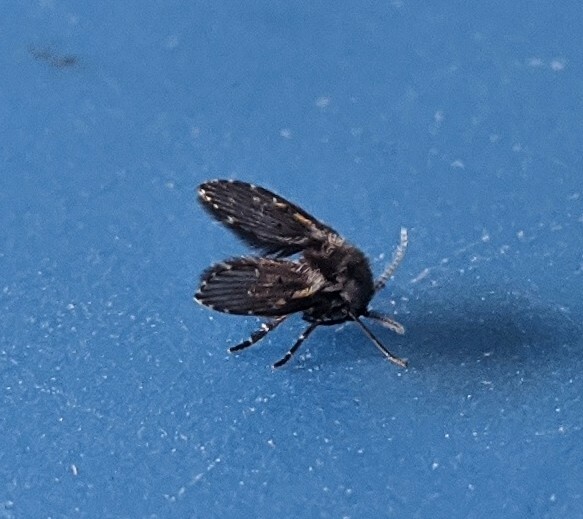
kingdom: Animalia
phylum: Arthropoda
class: Insecta
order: Diptera
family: Psychodidae
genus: Clogmia
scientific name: Clogmia albipunctatus
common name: White-spotted moth fly
